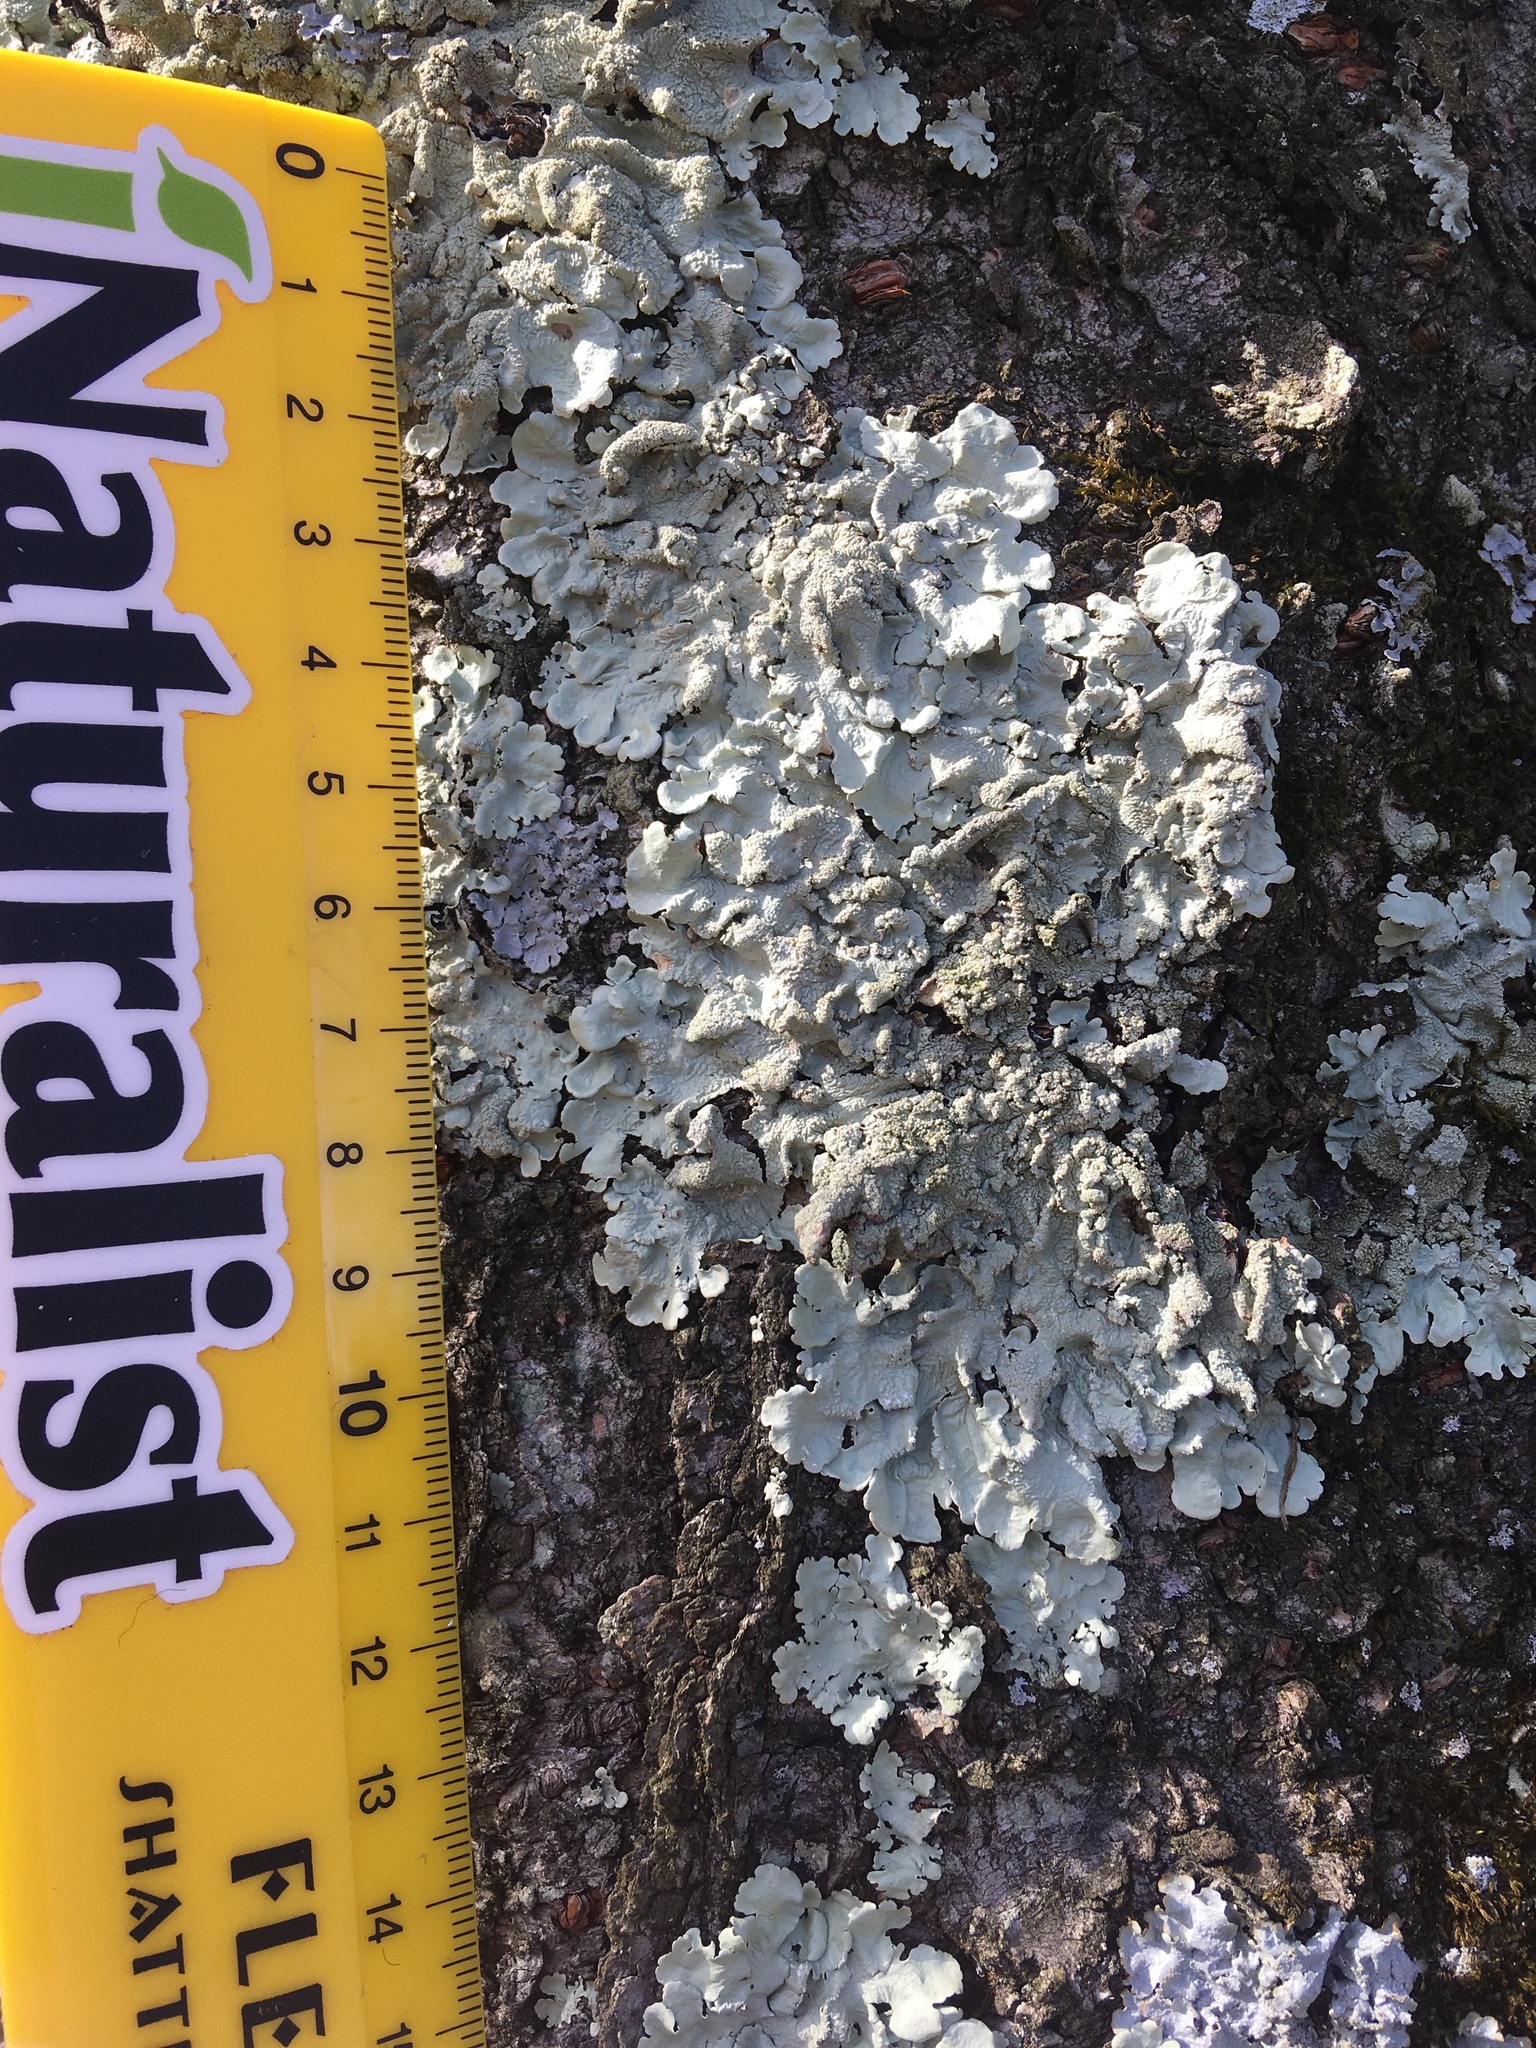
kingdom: Fungi
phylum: Ascomycota
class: Lecanoromycetes
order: Lecanorales
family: Parmeliaceae
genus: Flavoparmelia
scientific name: Flavoparmelia caperata
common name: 40-mile per hour lichen
